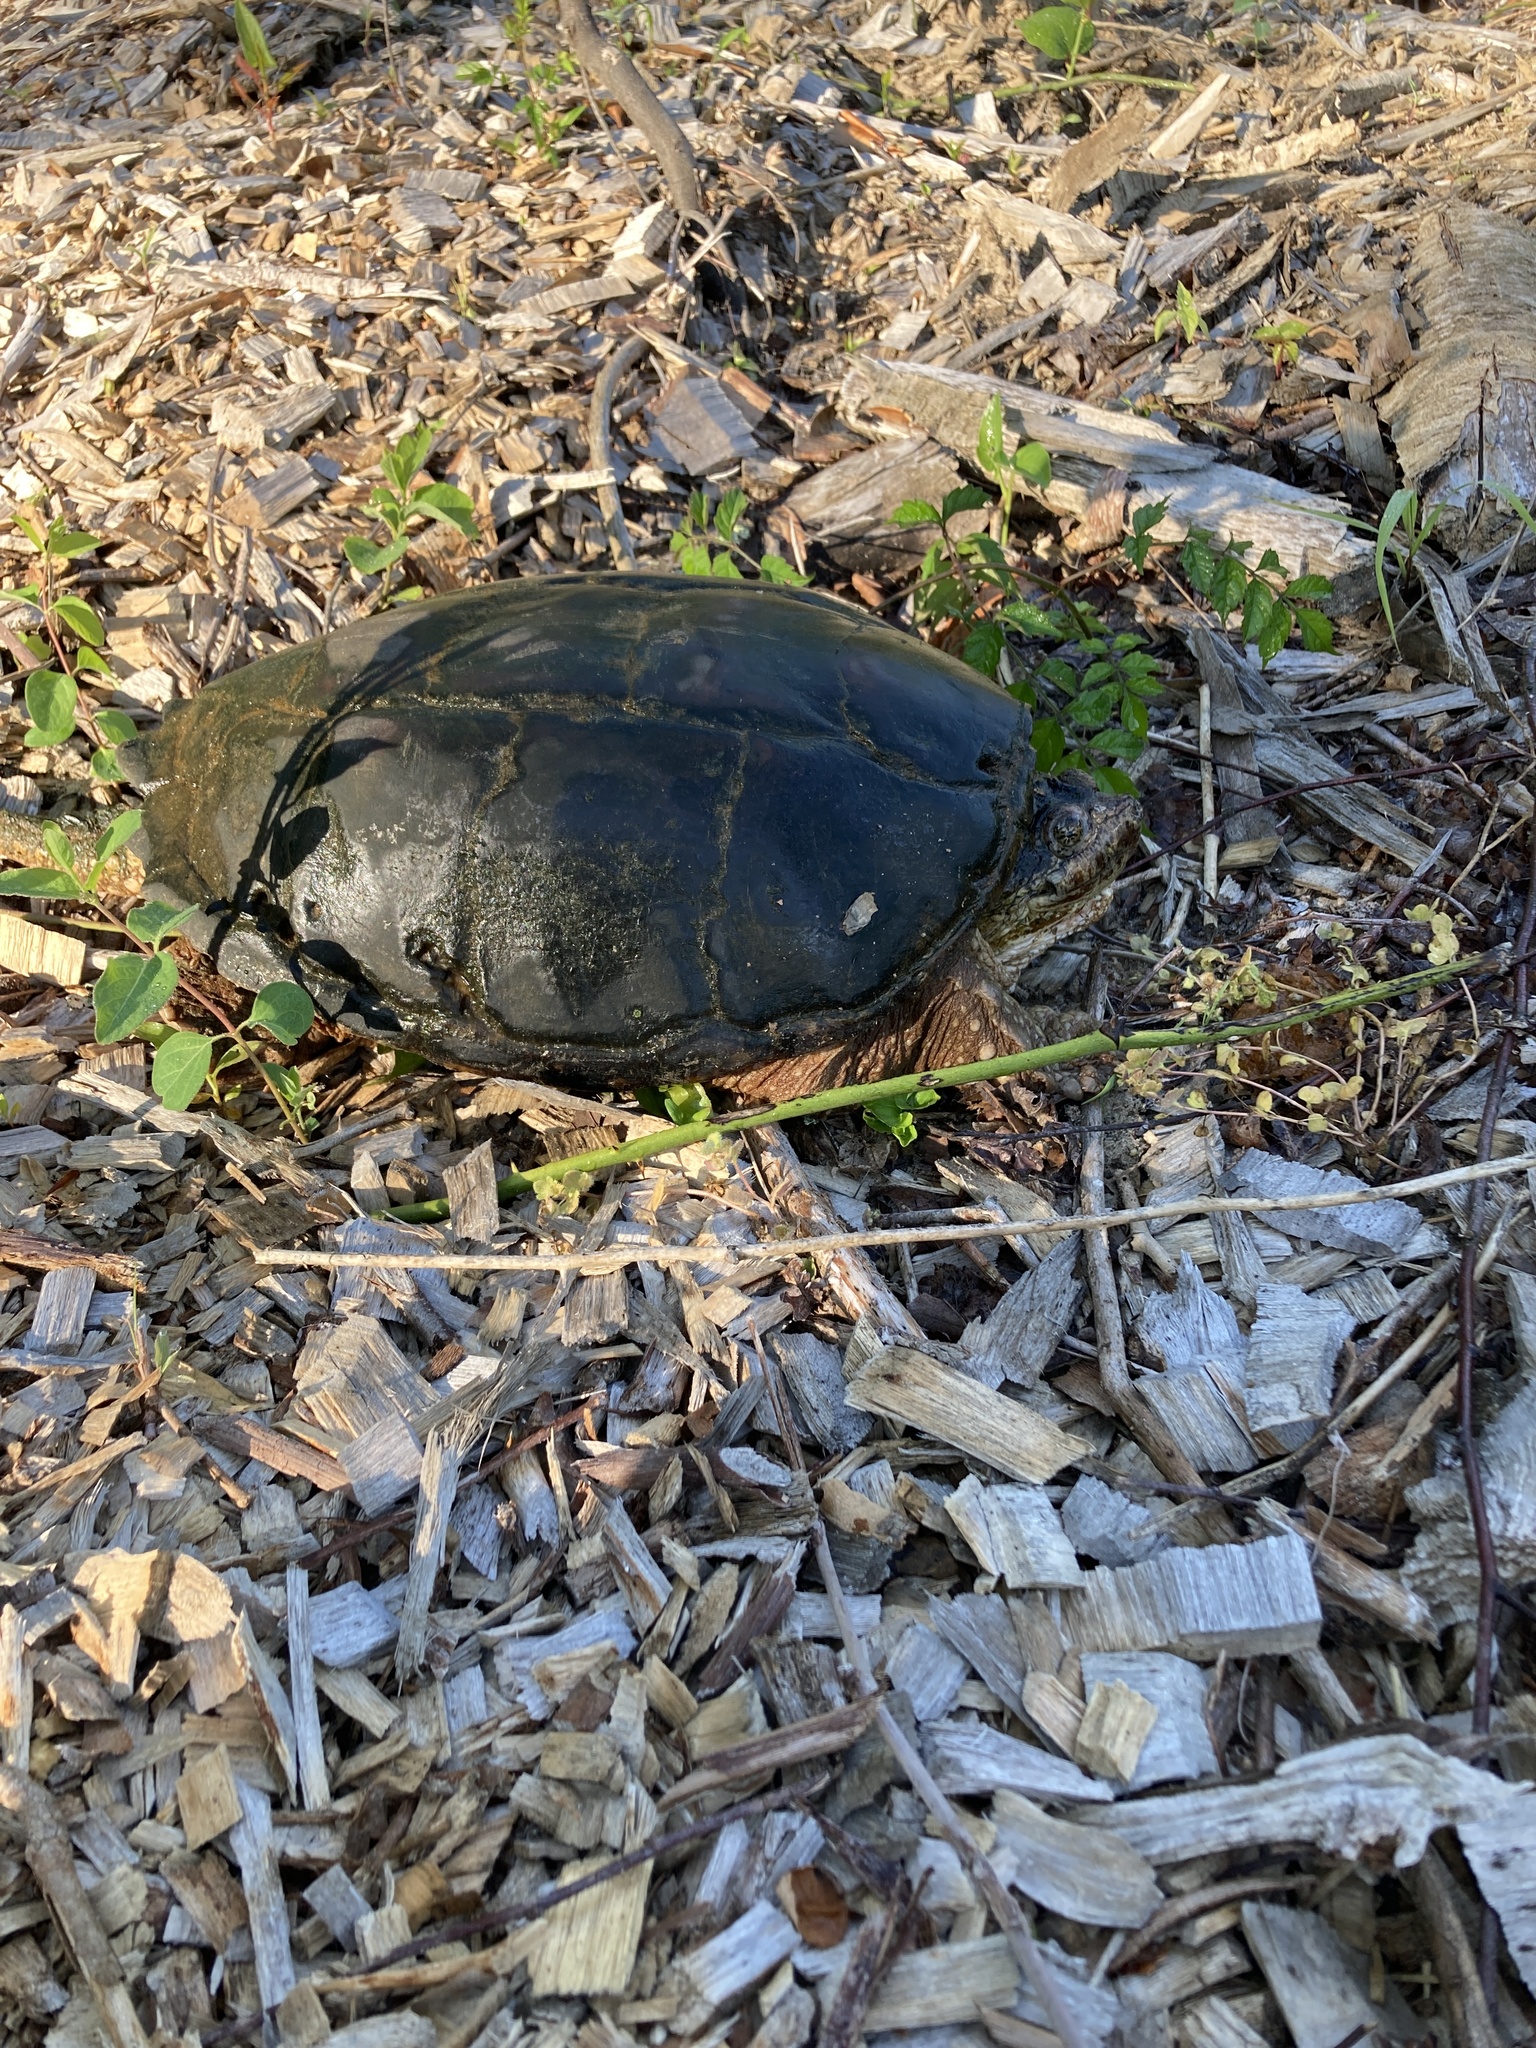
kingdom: Animalia
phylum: Chordata
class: Testudines
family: Chelydridae
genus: Chelydra
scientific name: Chelydra serpentina
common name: Common snapping turtle
